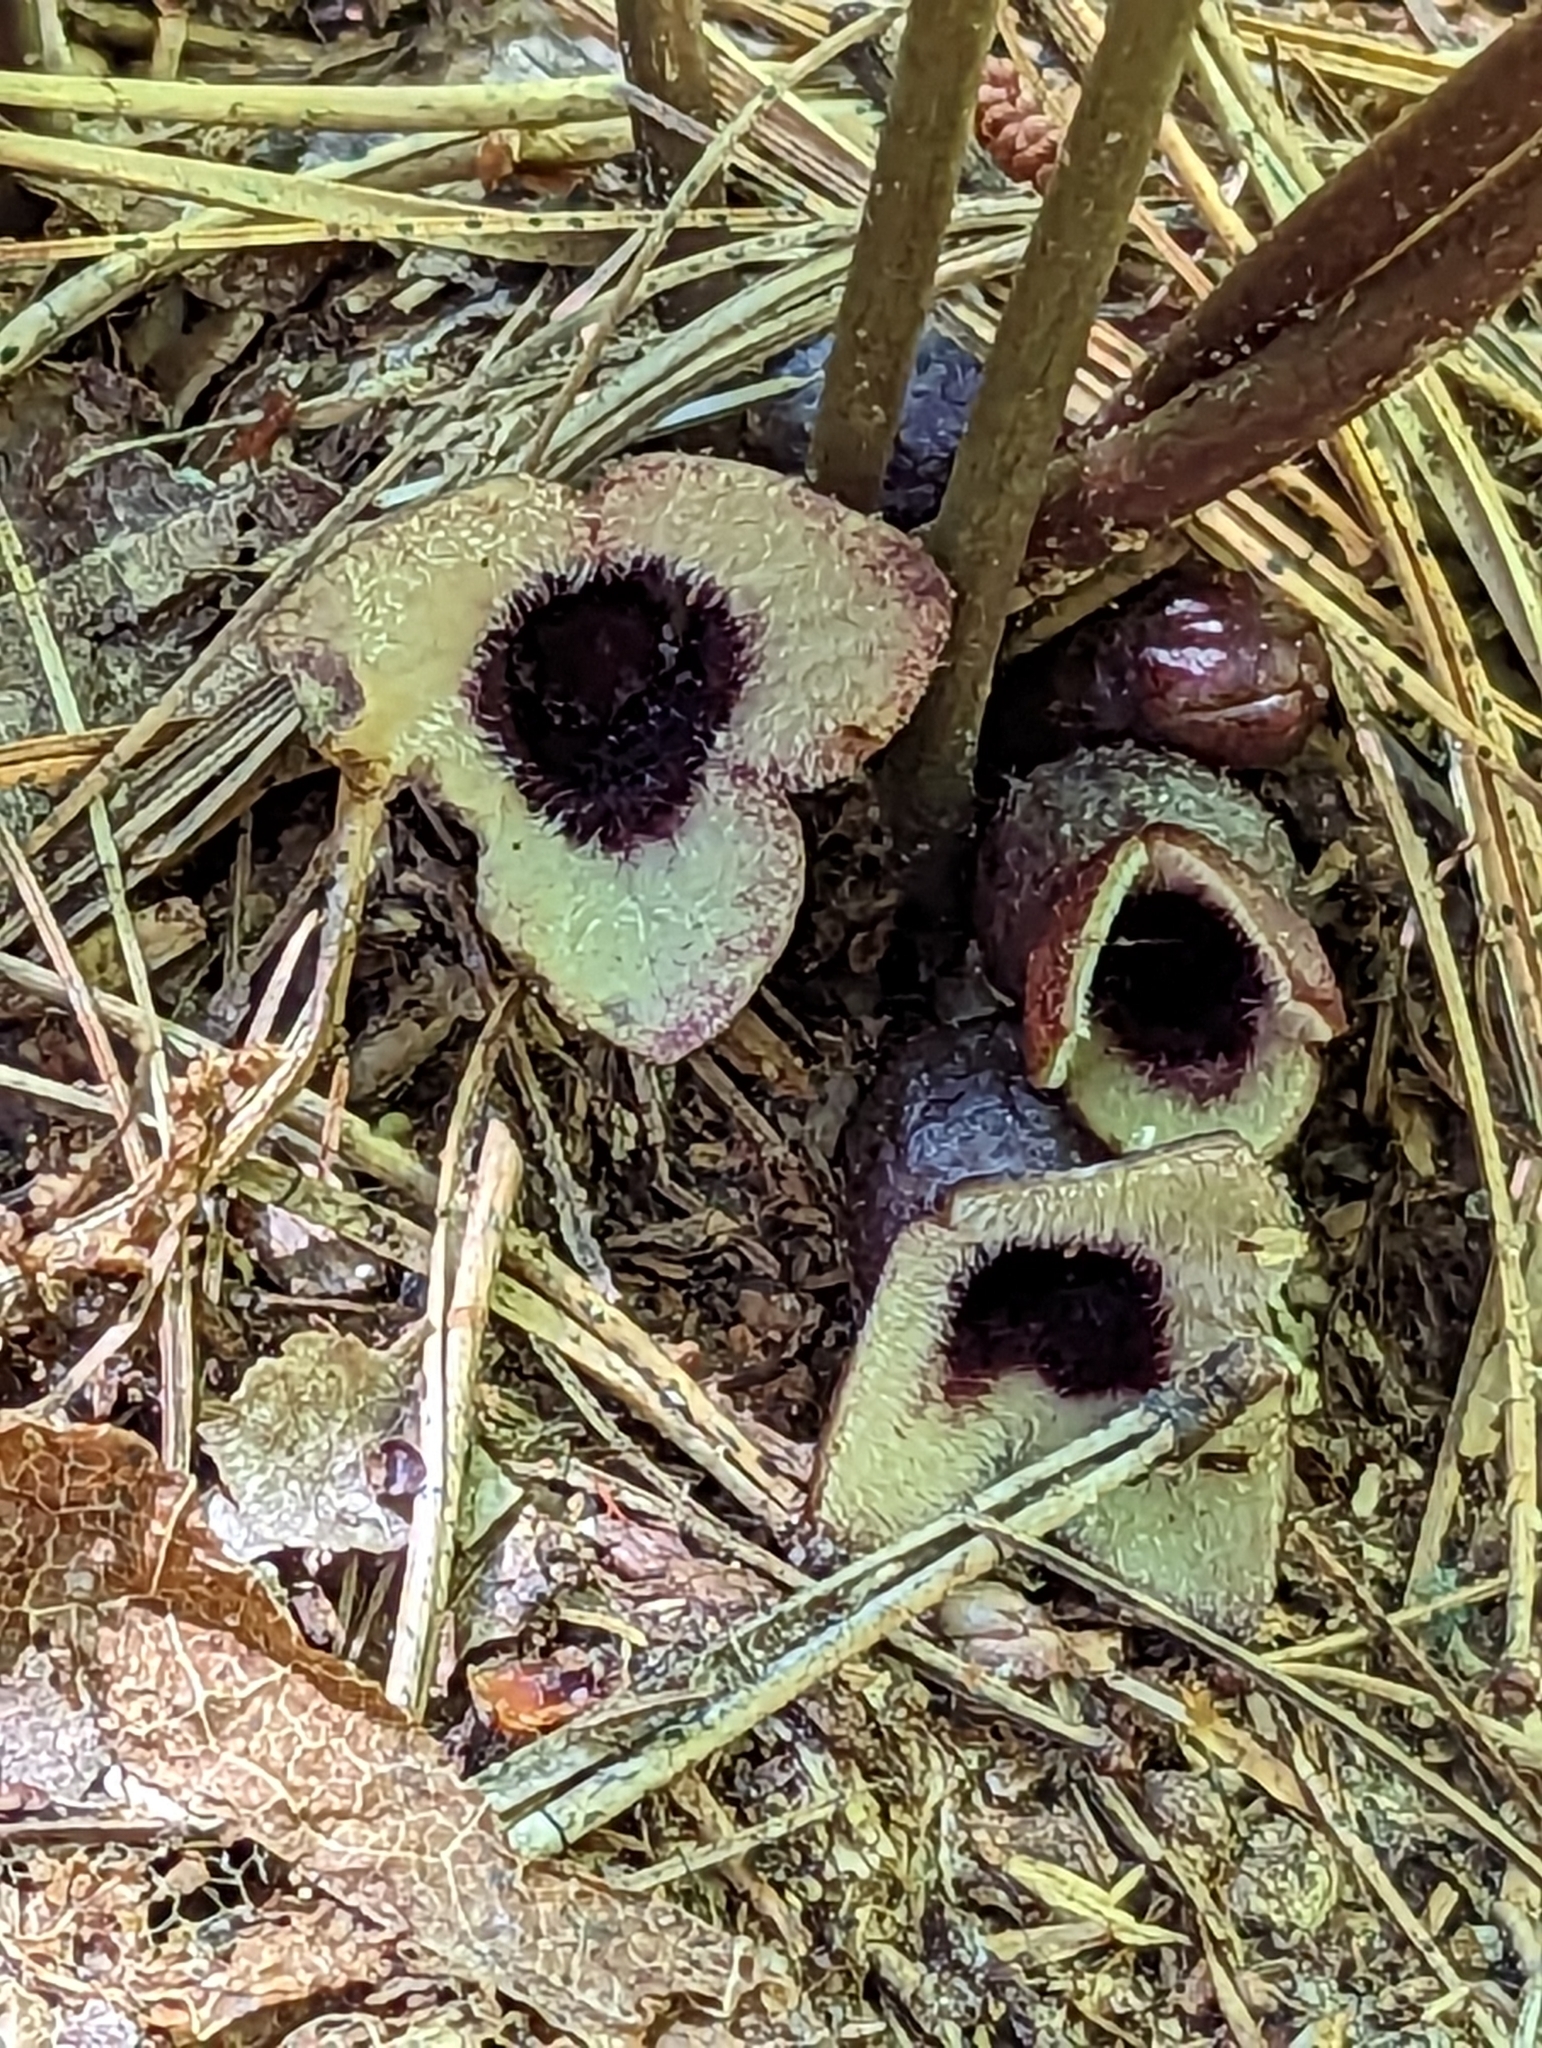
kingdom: Plantae
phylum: Tracheophyta
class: Magnoliopsida
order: Piperales
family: Aristolochiaceae
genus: Hexastylis
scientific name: Hexastylis rosei
